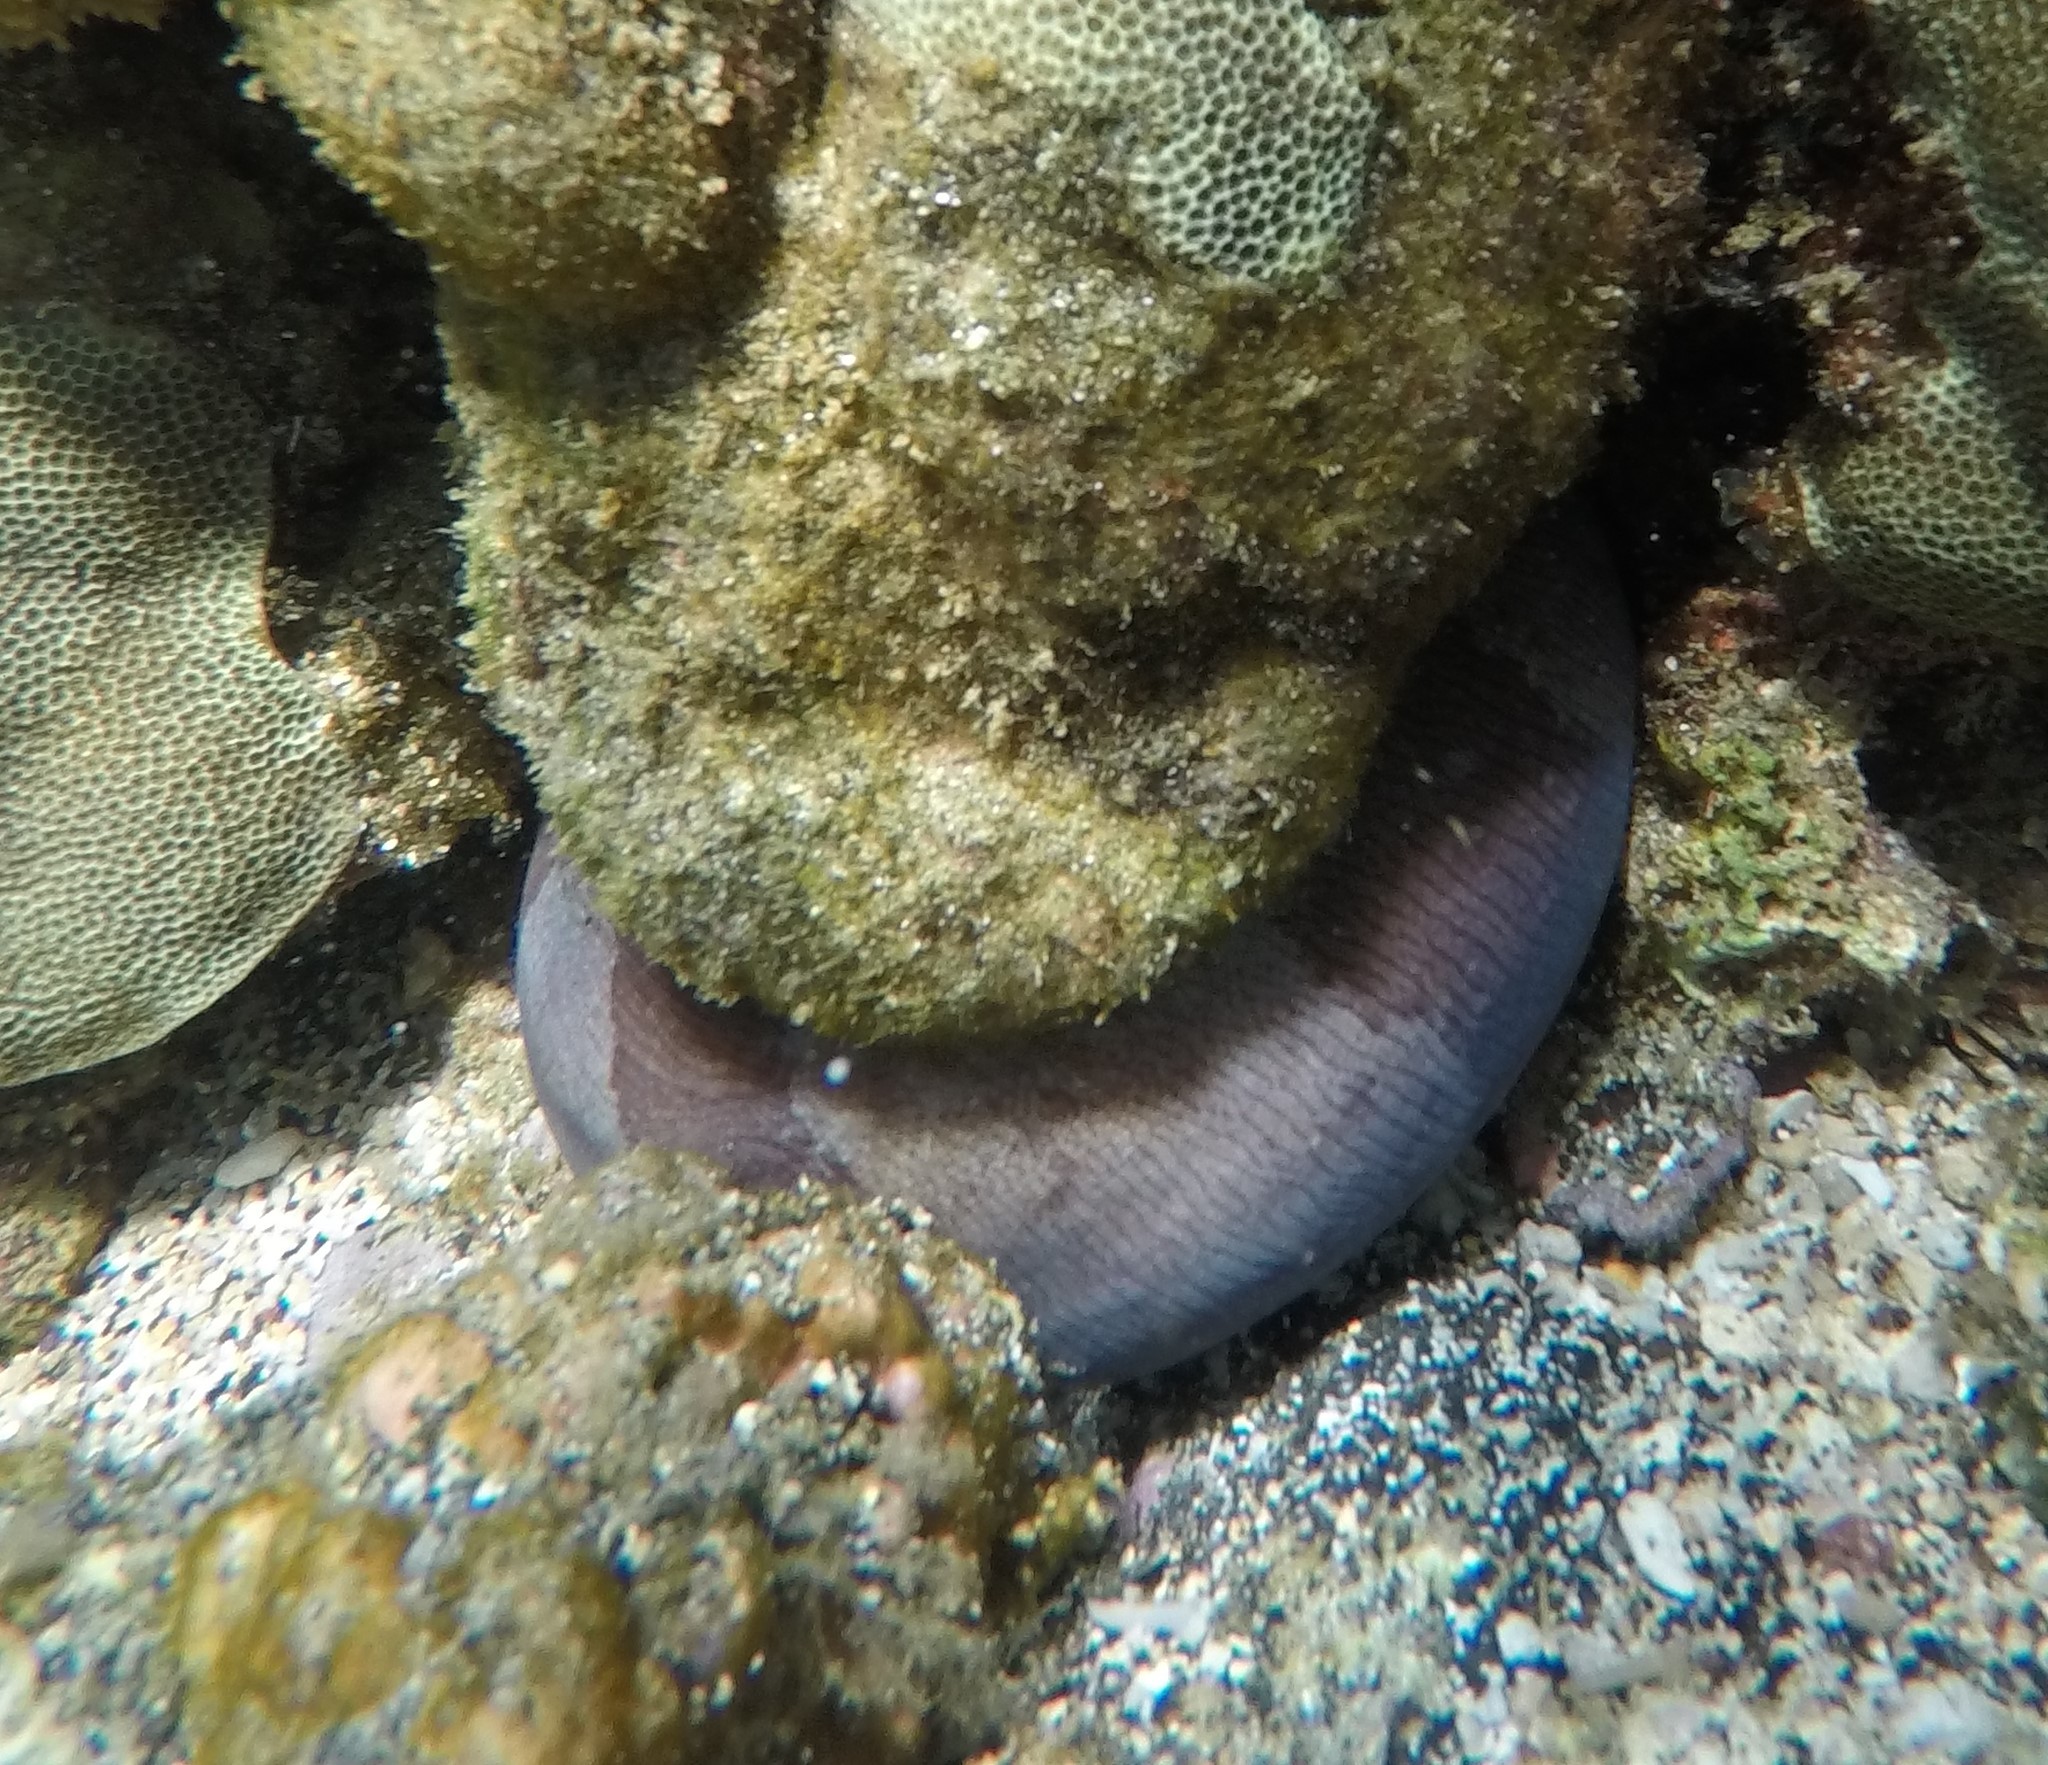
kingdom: Animalia
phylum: Chordata
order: Anguilliformes
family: Muraenidae
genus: Gymnothorax
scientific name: Gymnothorax rueppelliae
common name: Banded moray
